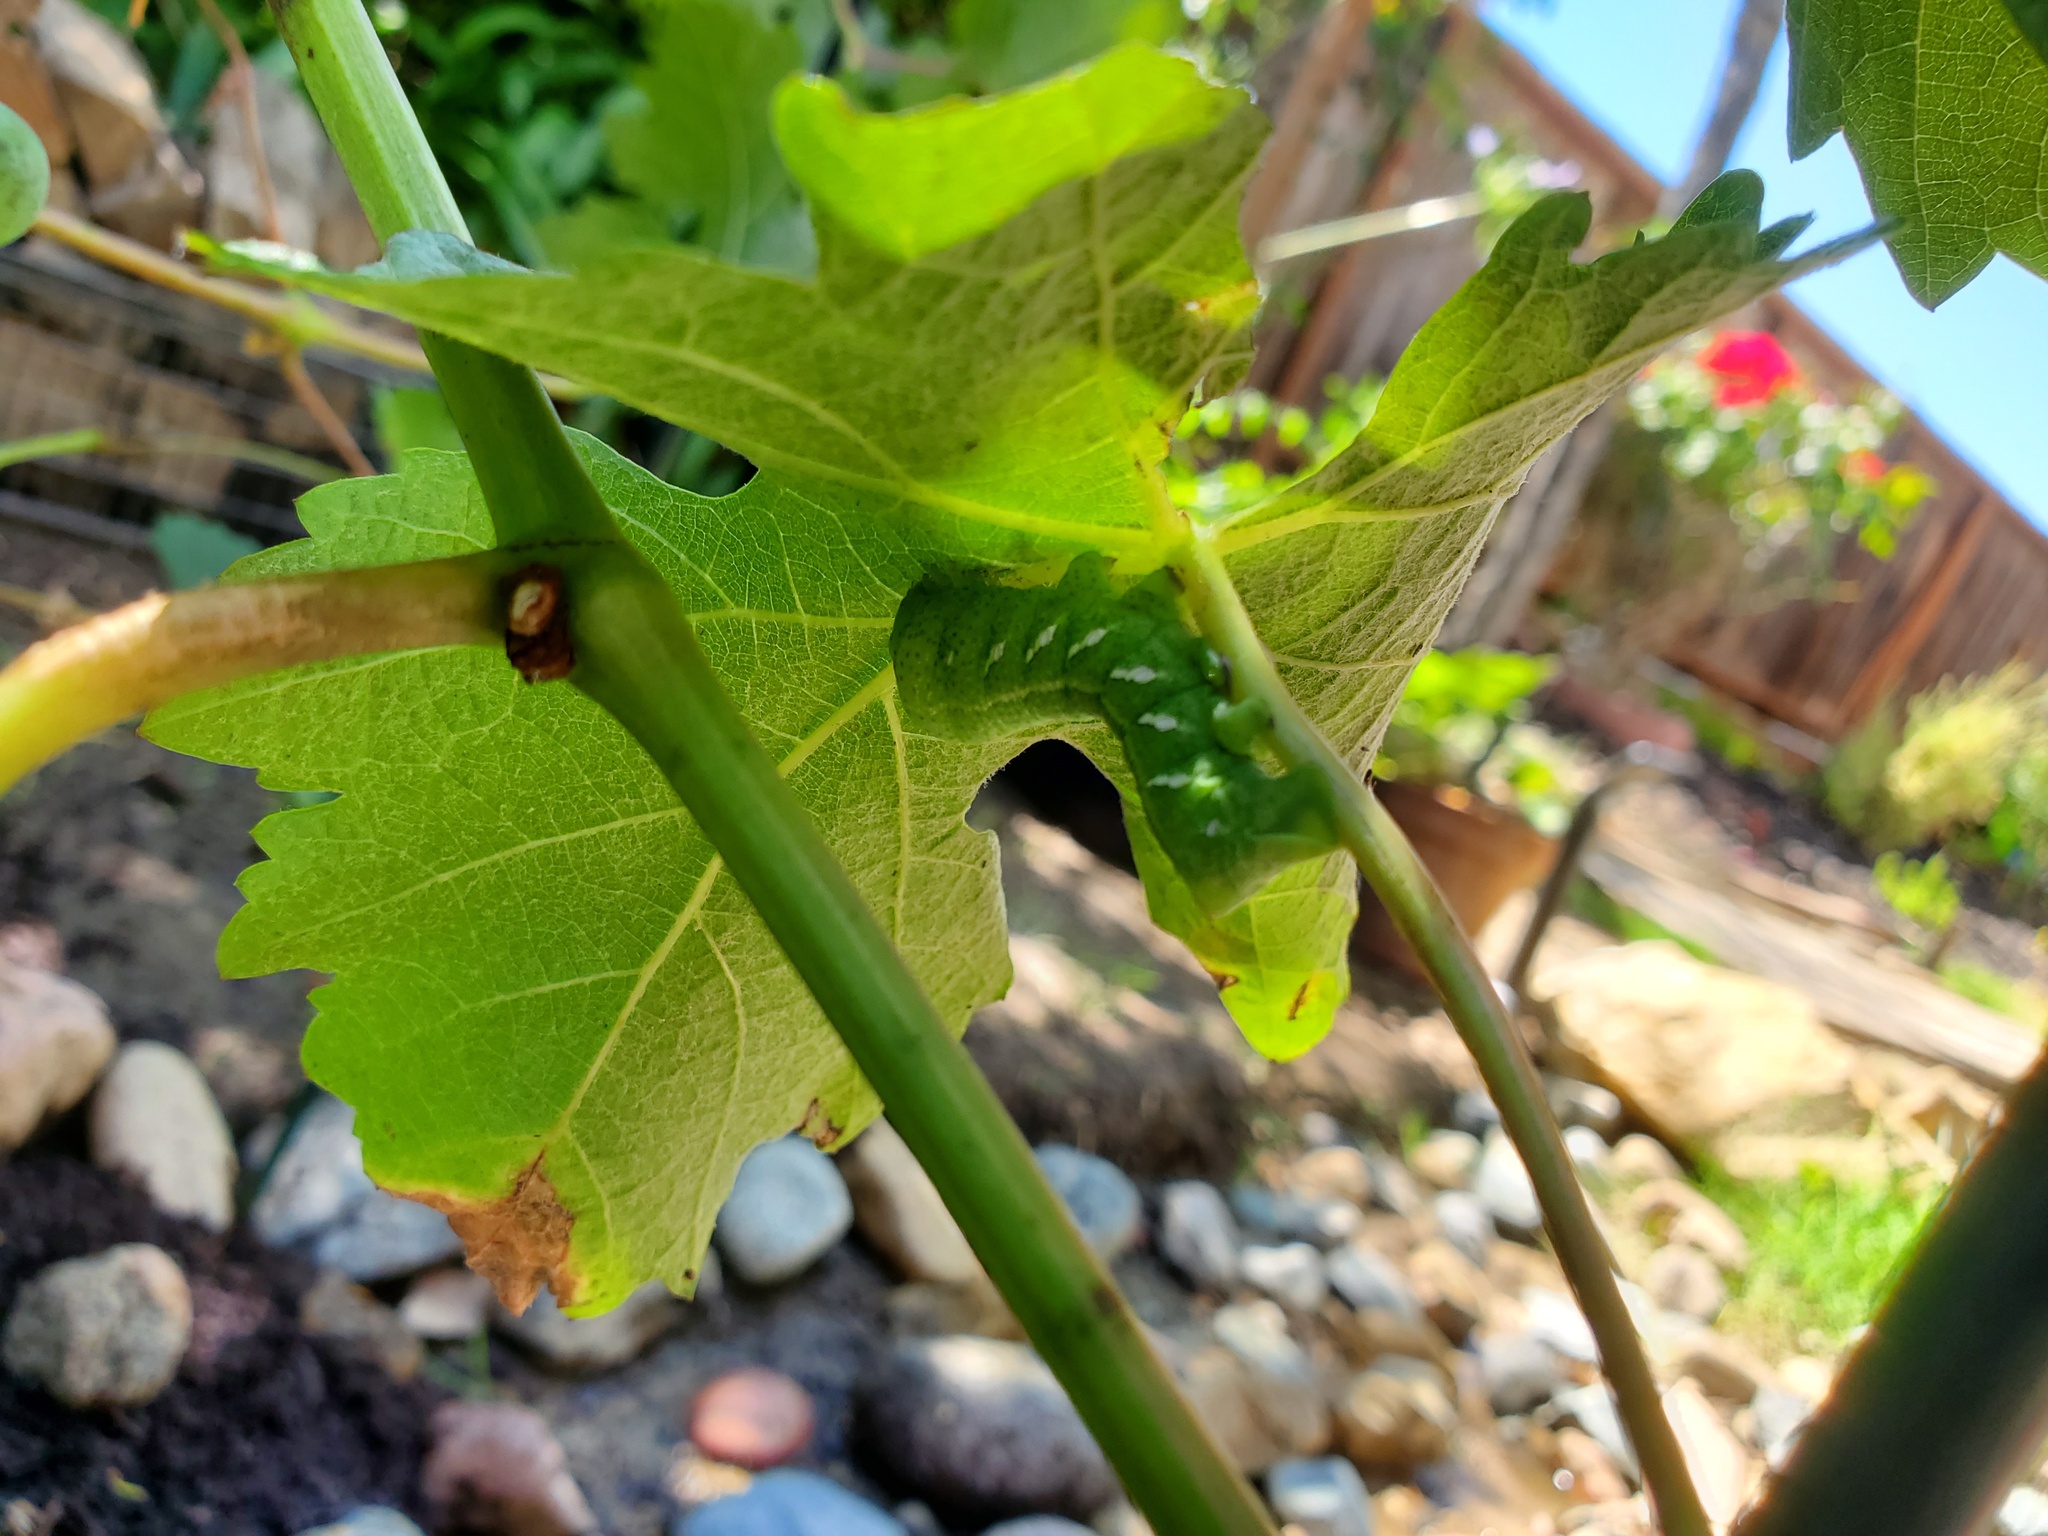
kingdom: Animalia
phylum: Arthropoda
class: Insecta
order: Lepidoptera
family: Sphingidae
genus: Eumorpha
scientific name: Eumorpha achemon
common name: Achemon sphinx
